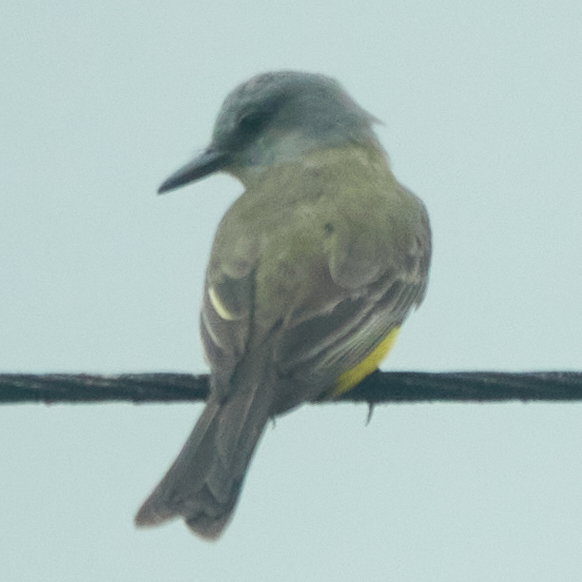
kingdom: Animalia
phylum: Chordata
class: Aves
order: Passeriformes
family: Tyrannidae
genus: Tyrannus
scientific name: Tyrannus melancholicus
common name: Tropical kingbird
